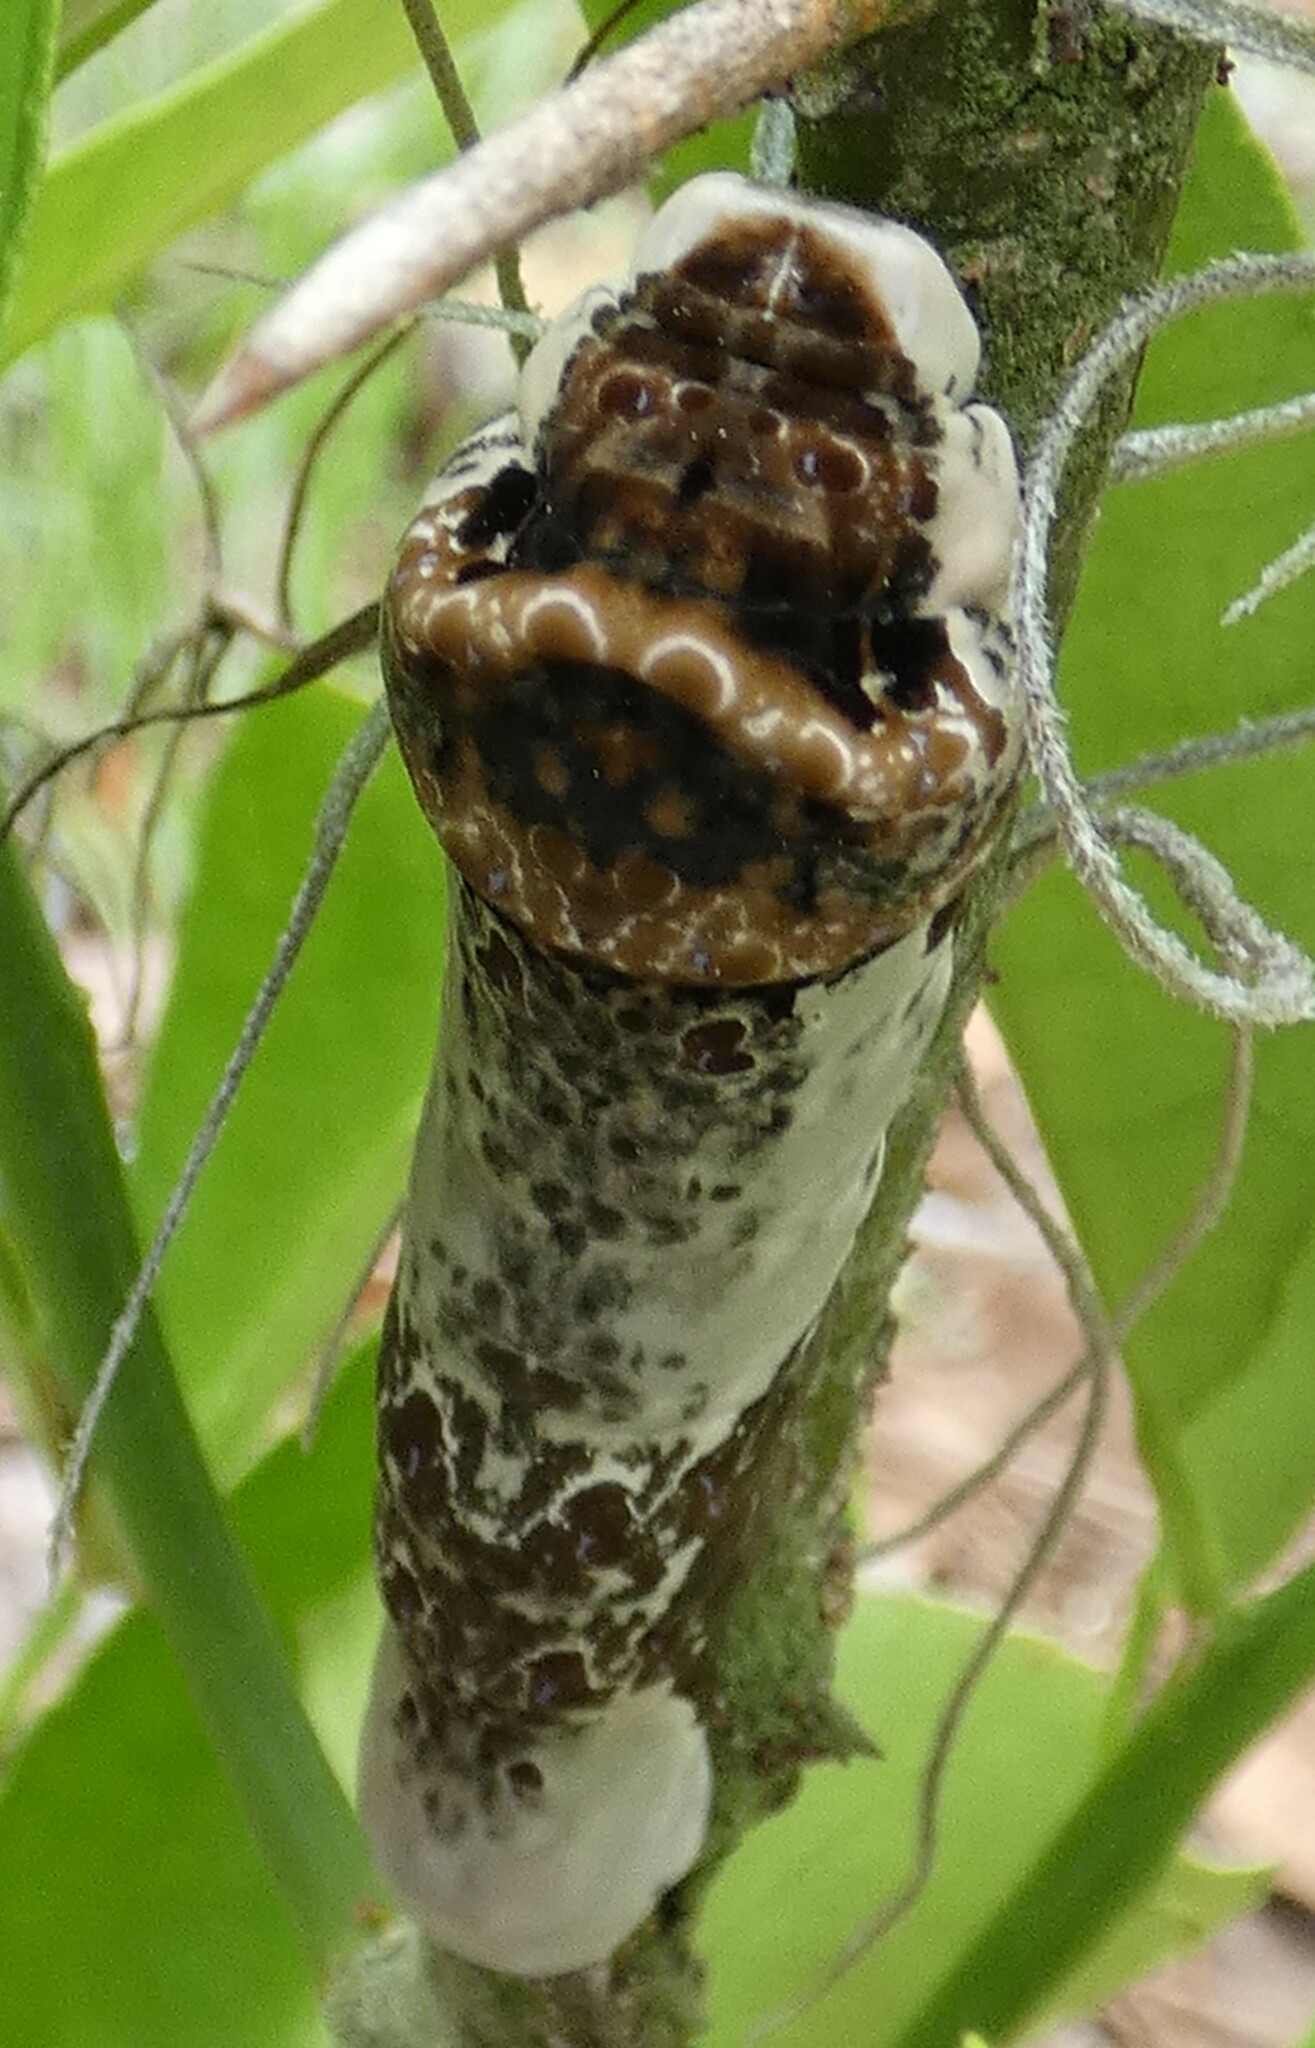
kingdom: Animalia
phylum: Arthropoda
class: Insecta
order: Lepidoptera
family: Papilionidae
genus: Papilio
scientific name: Papilio cresphontes
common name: Giant swallowtail
